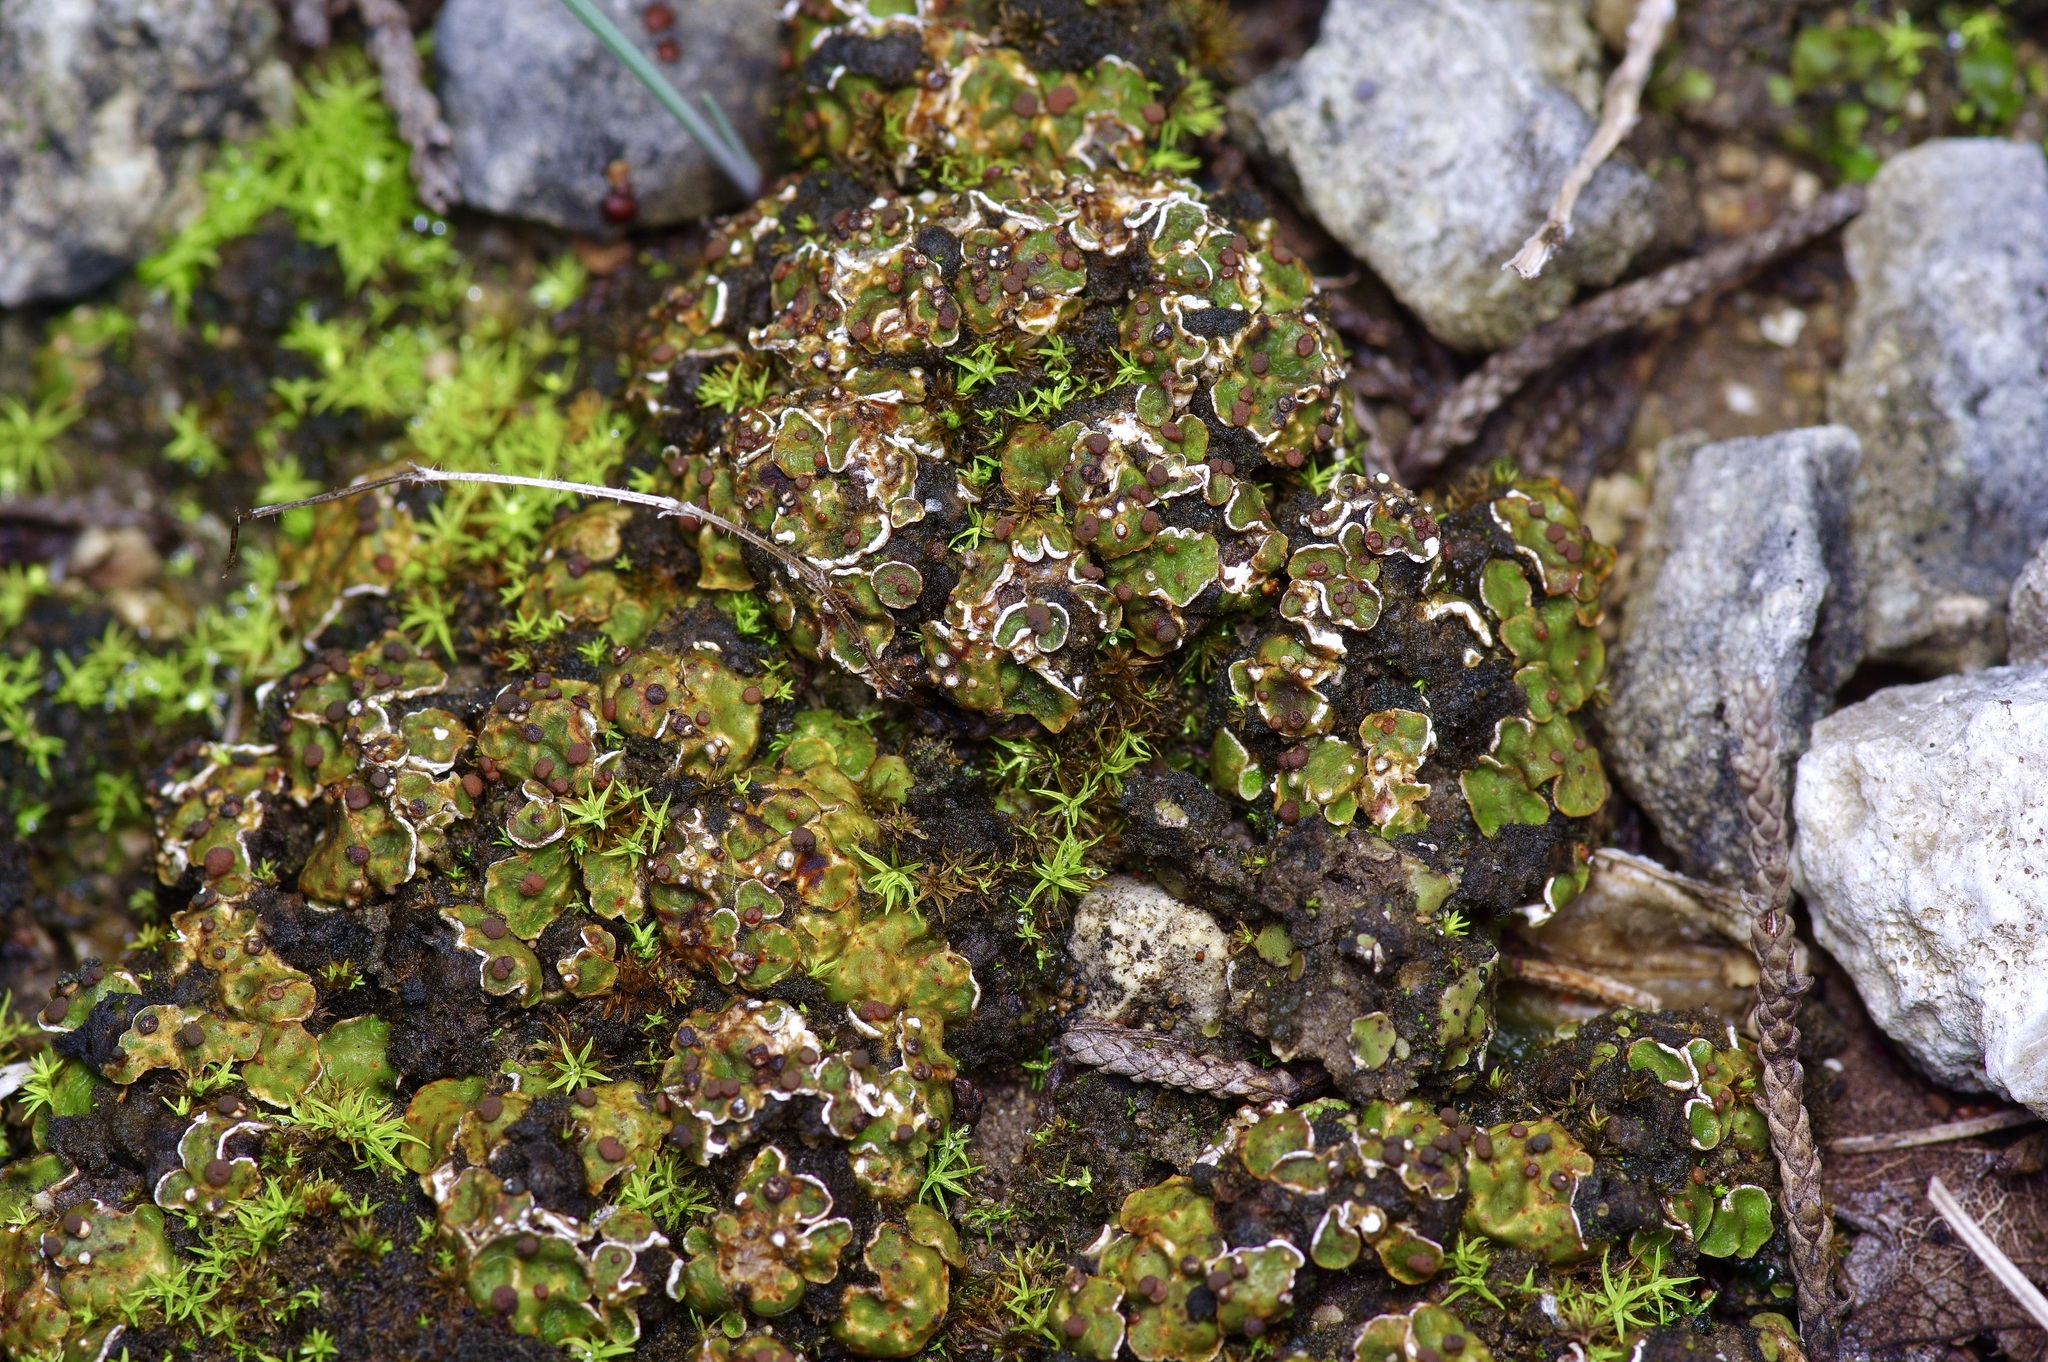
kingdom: Fungi
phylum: Ascomycota
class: Lecanoromycetes
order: Lecanorales
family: Psoraceae
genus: Psora
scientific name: Psora pseudorussellii
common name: Bordered scale lichen
